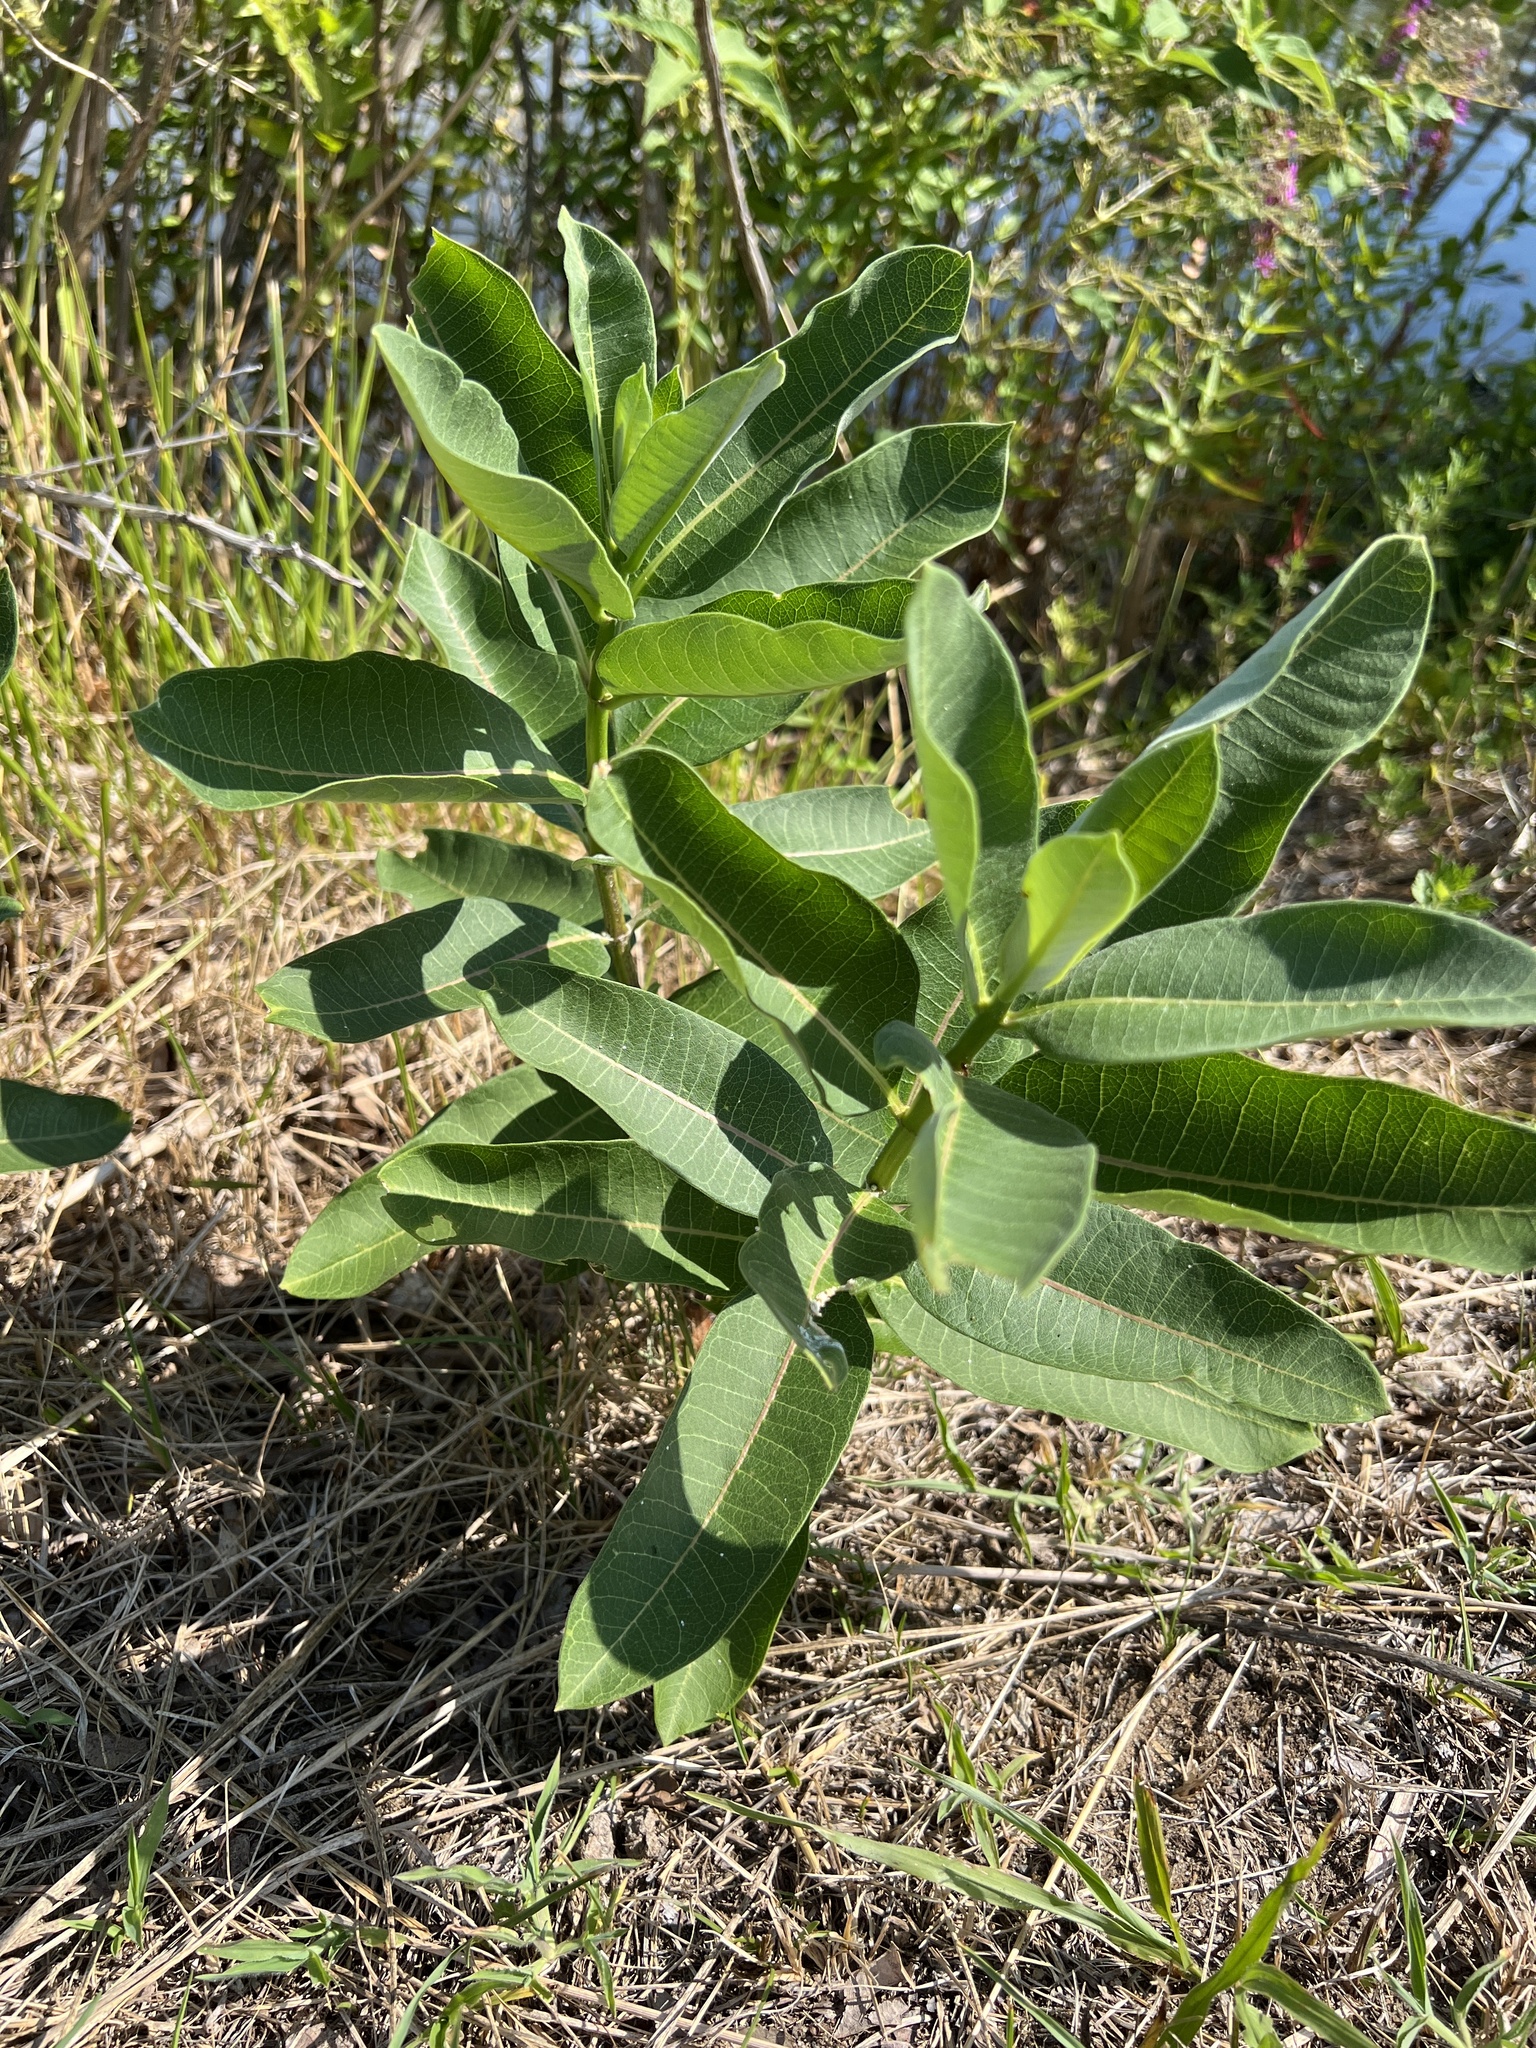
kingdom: Plantae
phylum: Tracheophyta
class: Magnoliopsida
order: Gentianales
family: Apocynaceae
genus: Asclepias
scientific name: Asclepias syriaca
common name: Common milkweed
